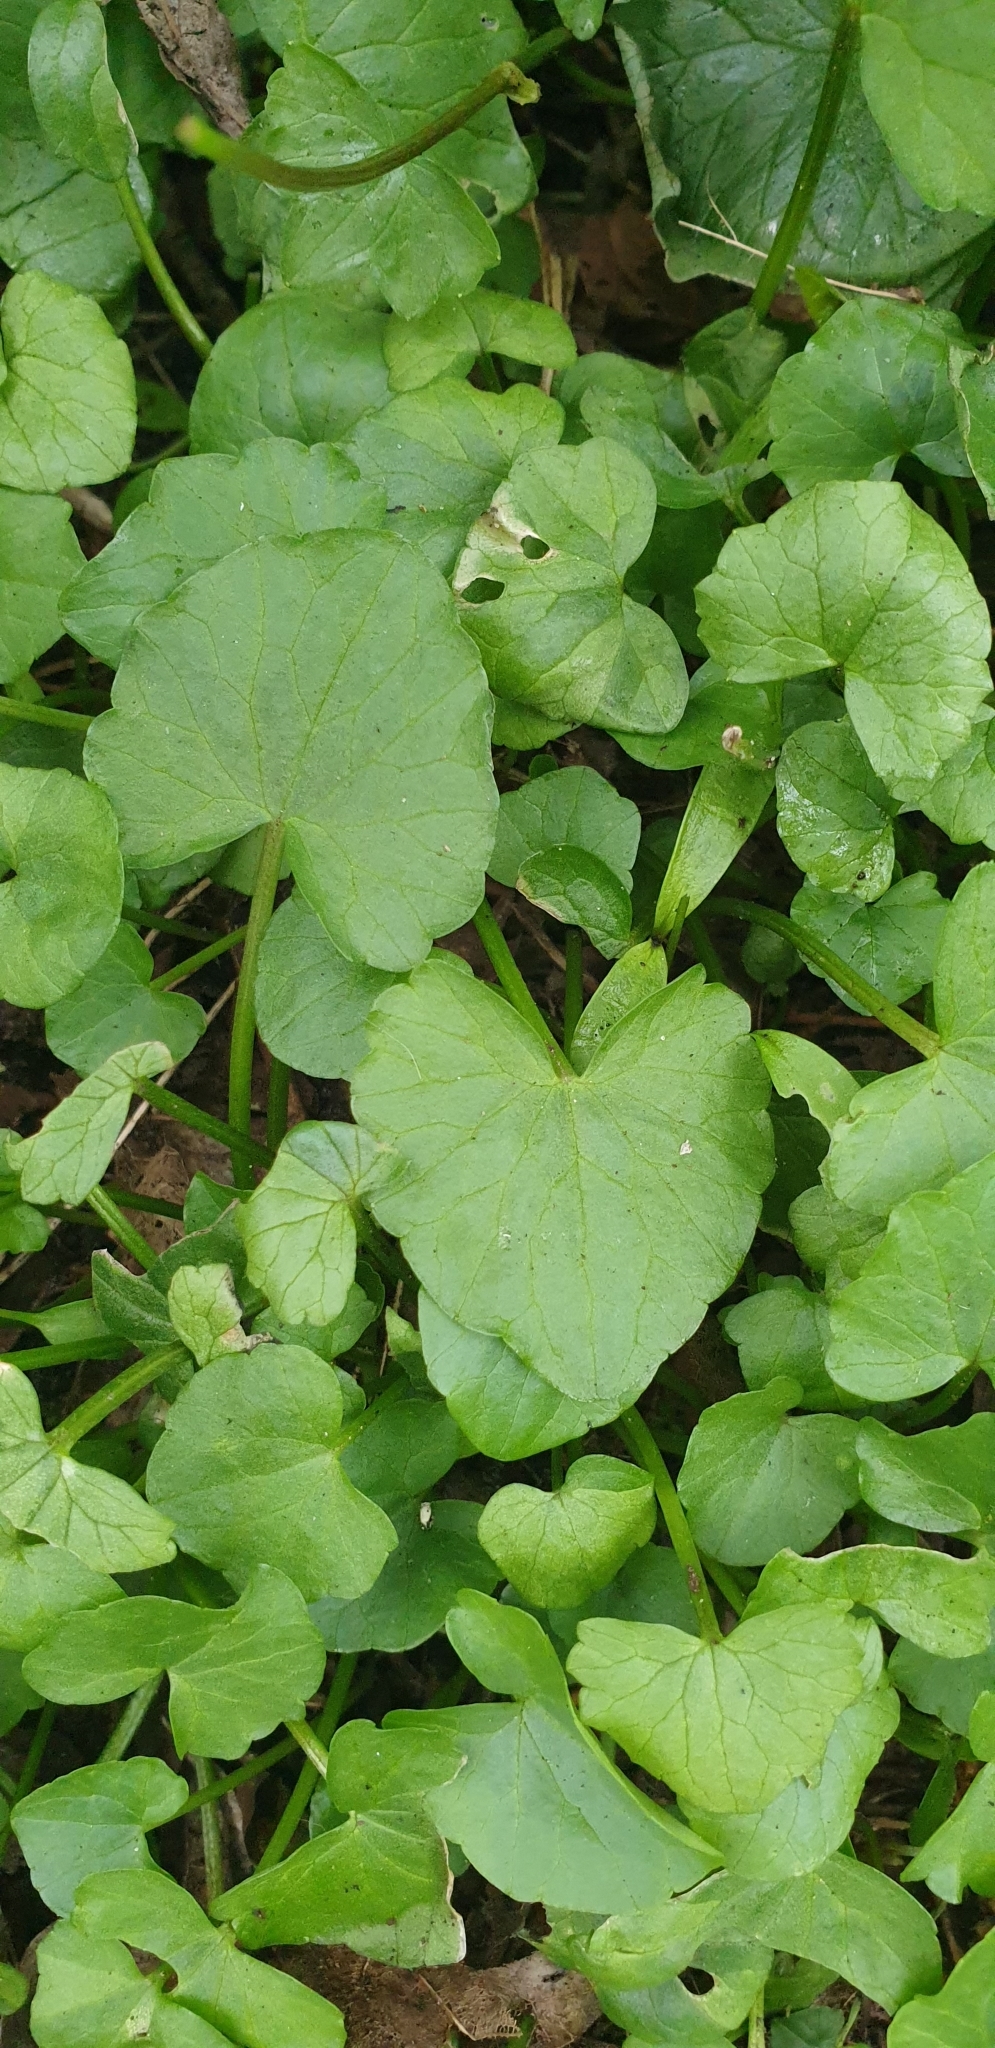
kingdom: Plantae
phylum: Tracheophyta
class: Magnoliopsida
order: Ranunculales
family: Ranunculaceae
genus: Ficaria
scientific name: Ficaria verna
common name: Lesser celandine
